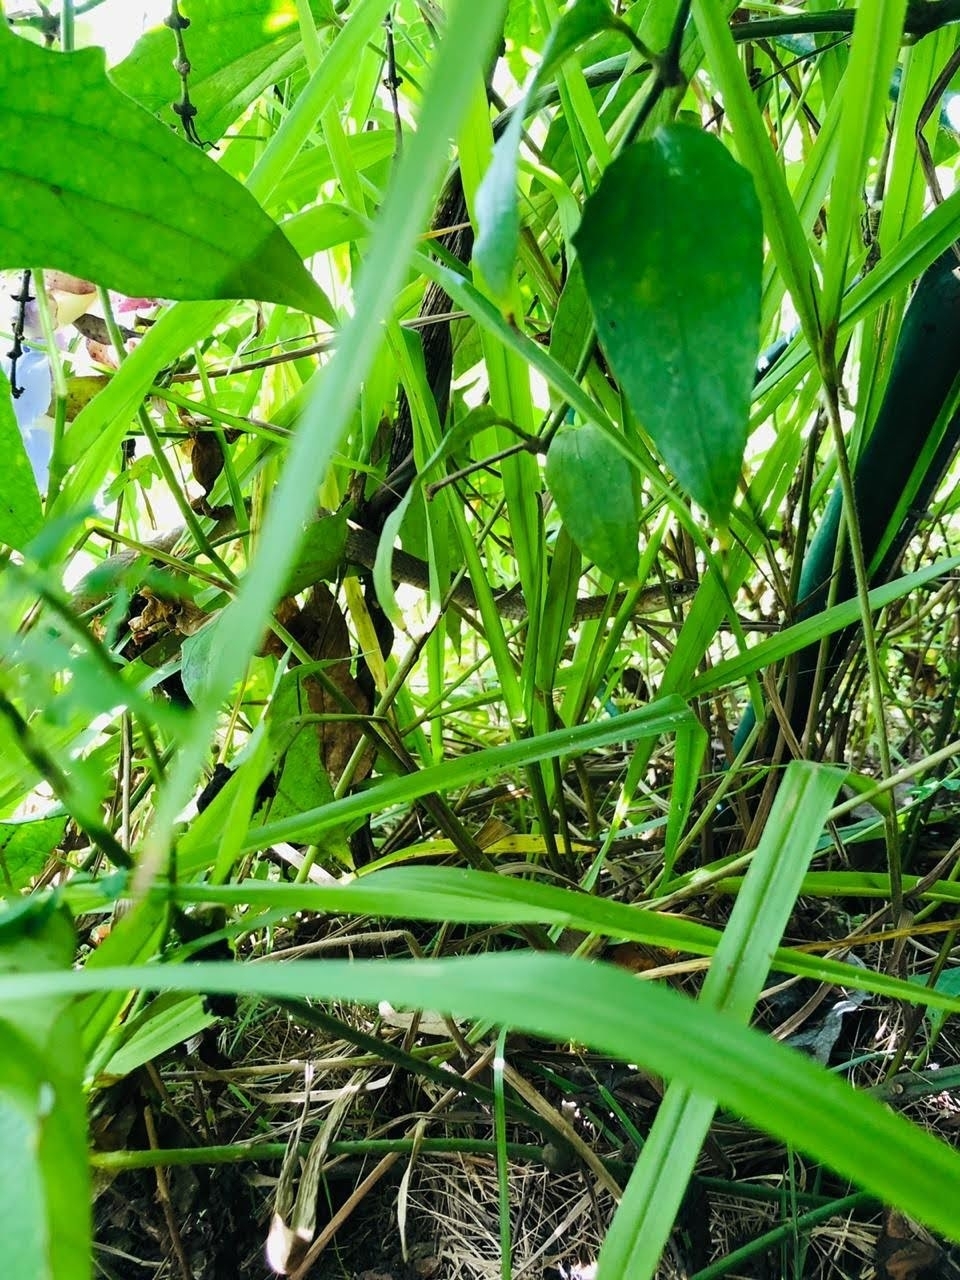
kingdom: Animalia
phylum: Chordata
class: Squamata
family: Colubridae
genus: Philodryas
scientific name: Philodryas patagoniensis
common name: Patagonia green racer
